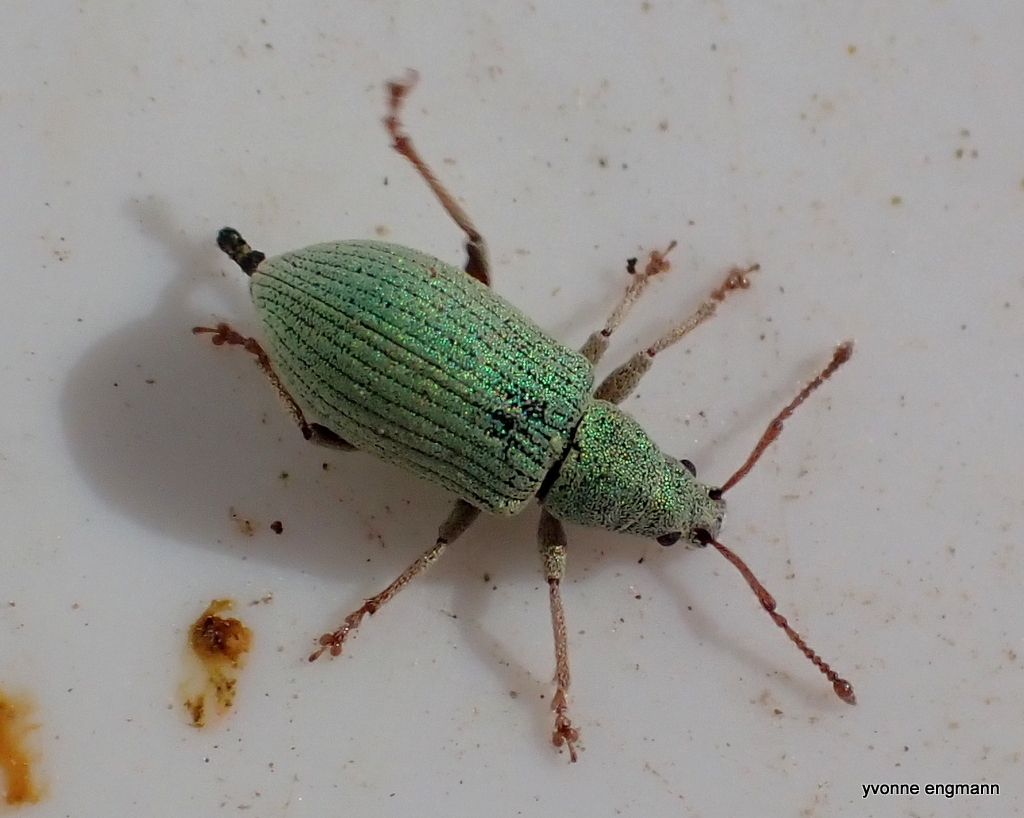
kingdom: Animalia
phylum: Arthropoda
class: Insecta
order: Coleoptera
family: Curculionidae
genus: Phyllobius
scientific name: Phyllobius virideaeris
